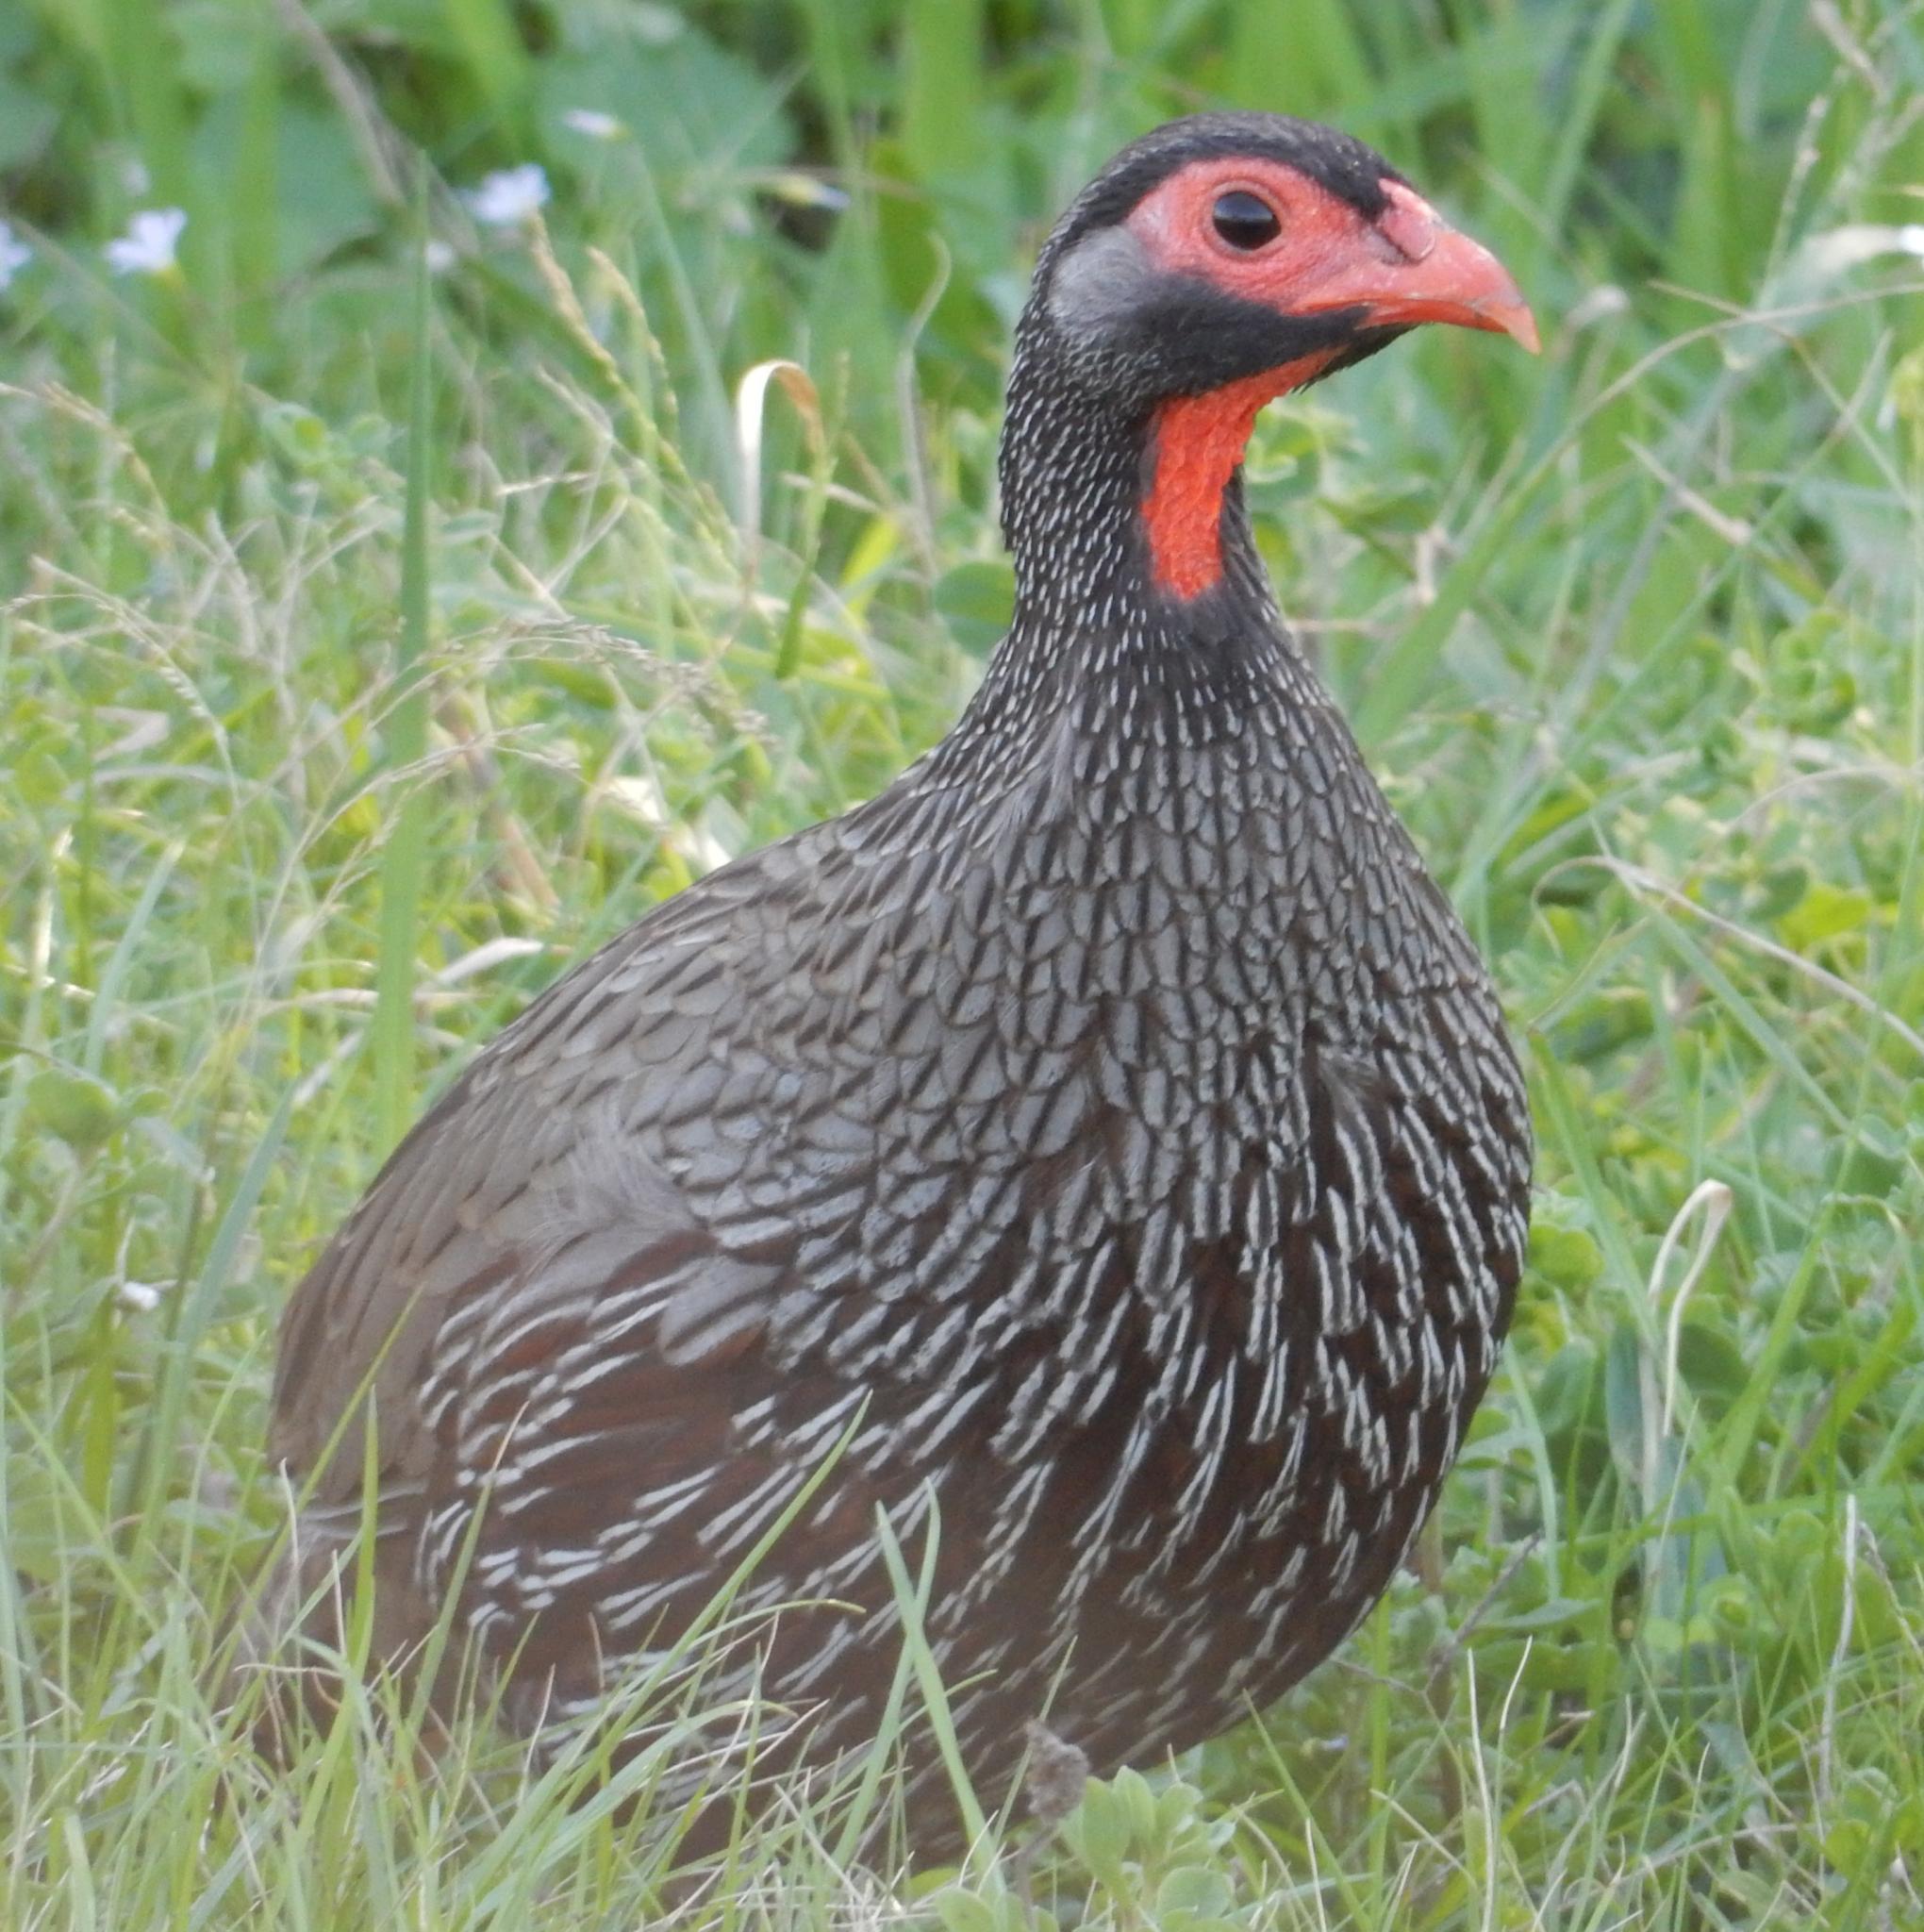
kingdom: Animalia
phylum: Chordata
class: Aves
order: Galliformes
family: Phasianidae
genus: Pternistis
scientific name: Pternistis afer
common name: Red-necked spurfowl
